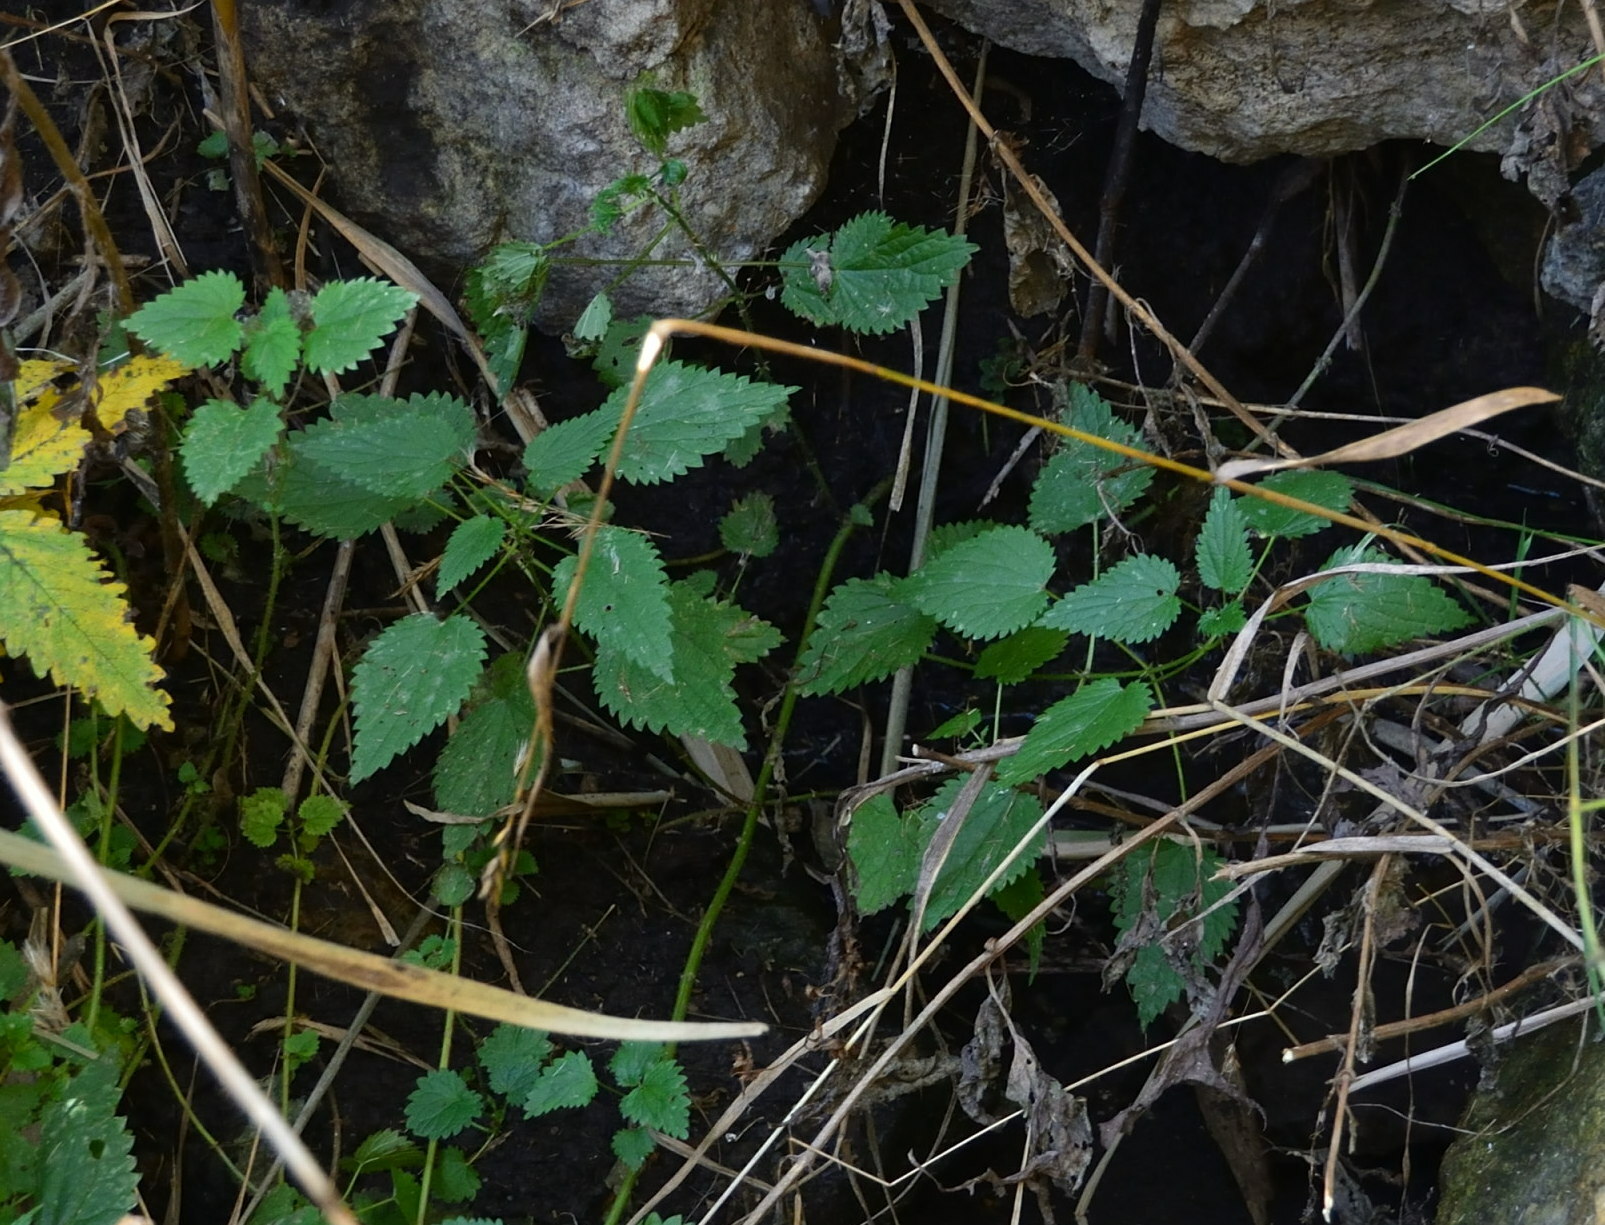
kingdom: Plantae
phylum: Tracheophyta
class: Magnoliopsida
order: Rosales
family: Urticaceae
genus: Urtica
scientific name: Urtica dioica
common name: Common nettle
